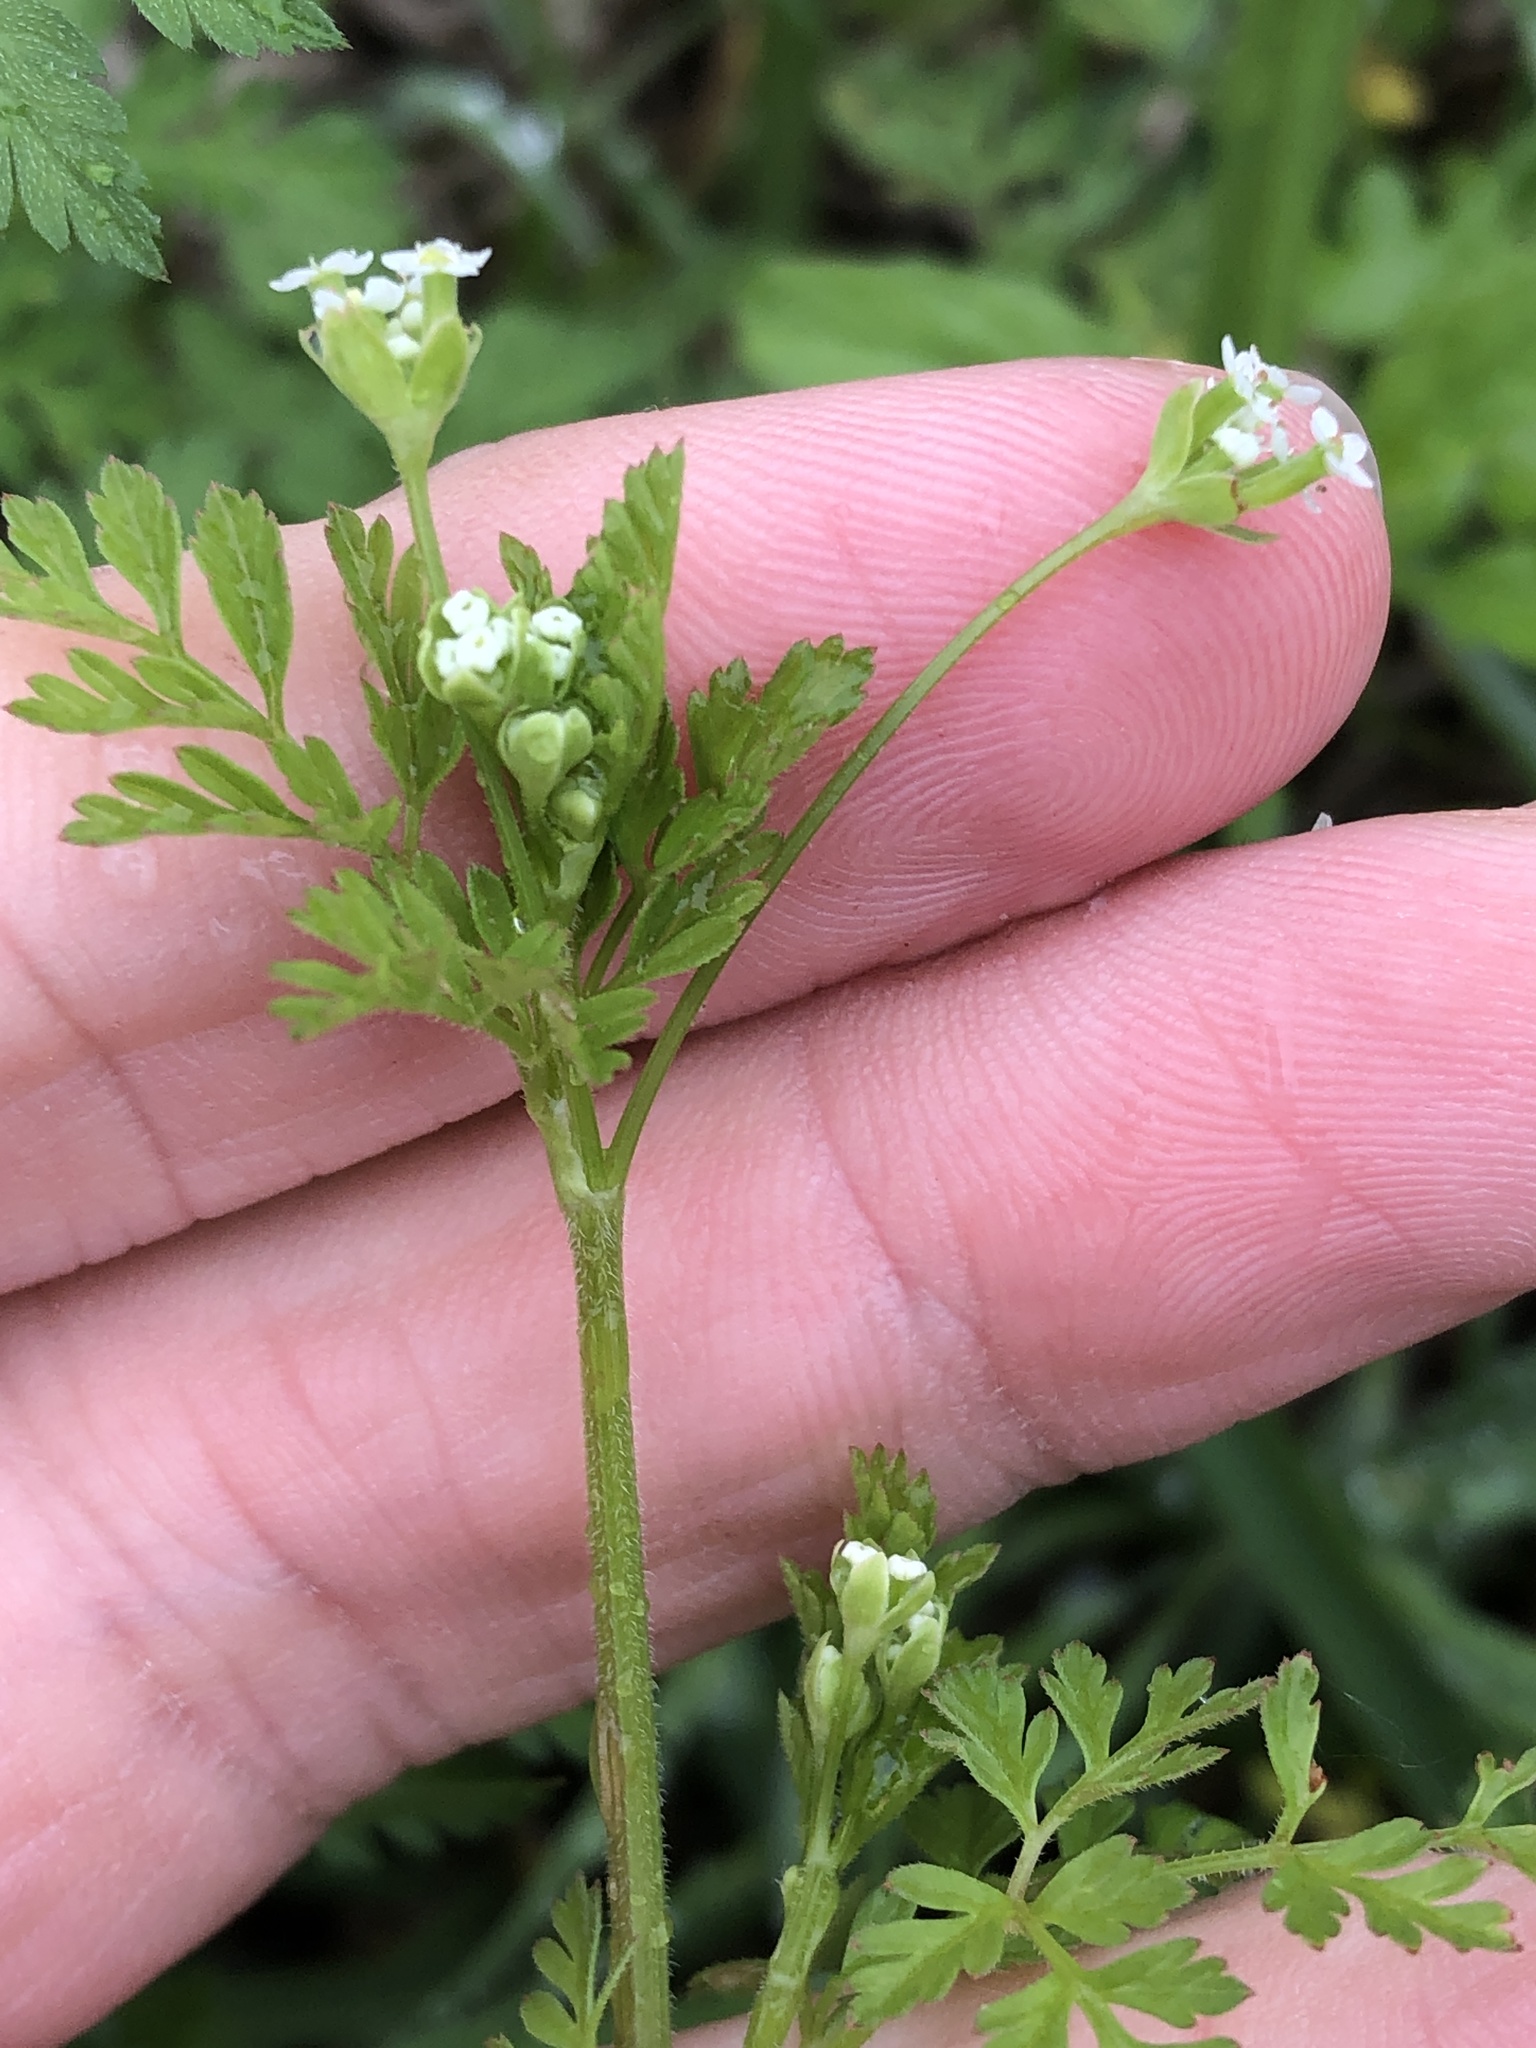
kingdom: Plantae
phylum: Tracheophyta
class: Magnoliopsida
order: Apiales
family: Apiaceae
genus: Chaerophyllum
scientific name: Chaerophyllum tainturieri
